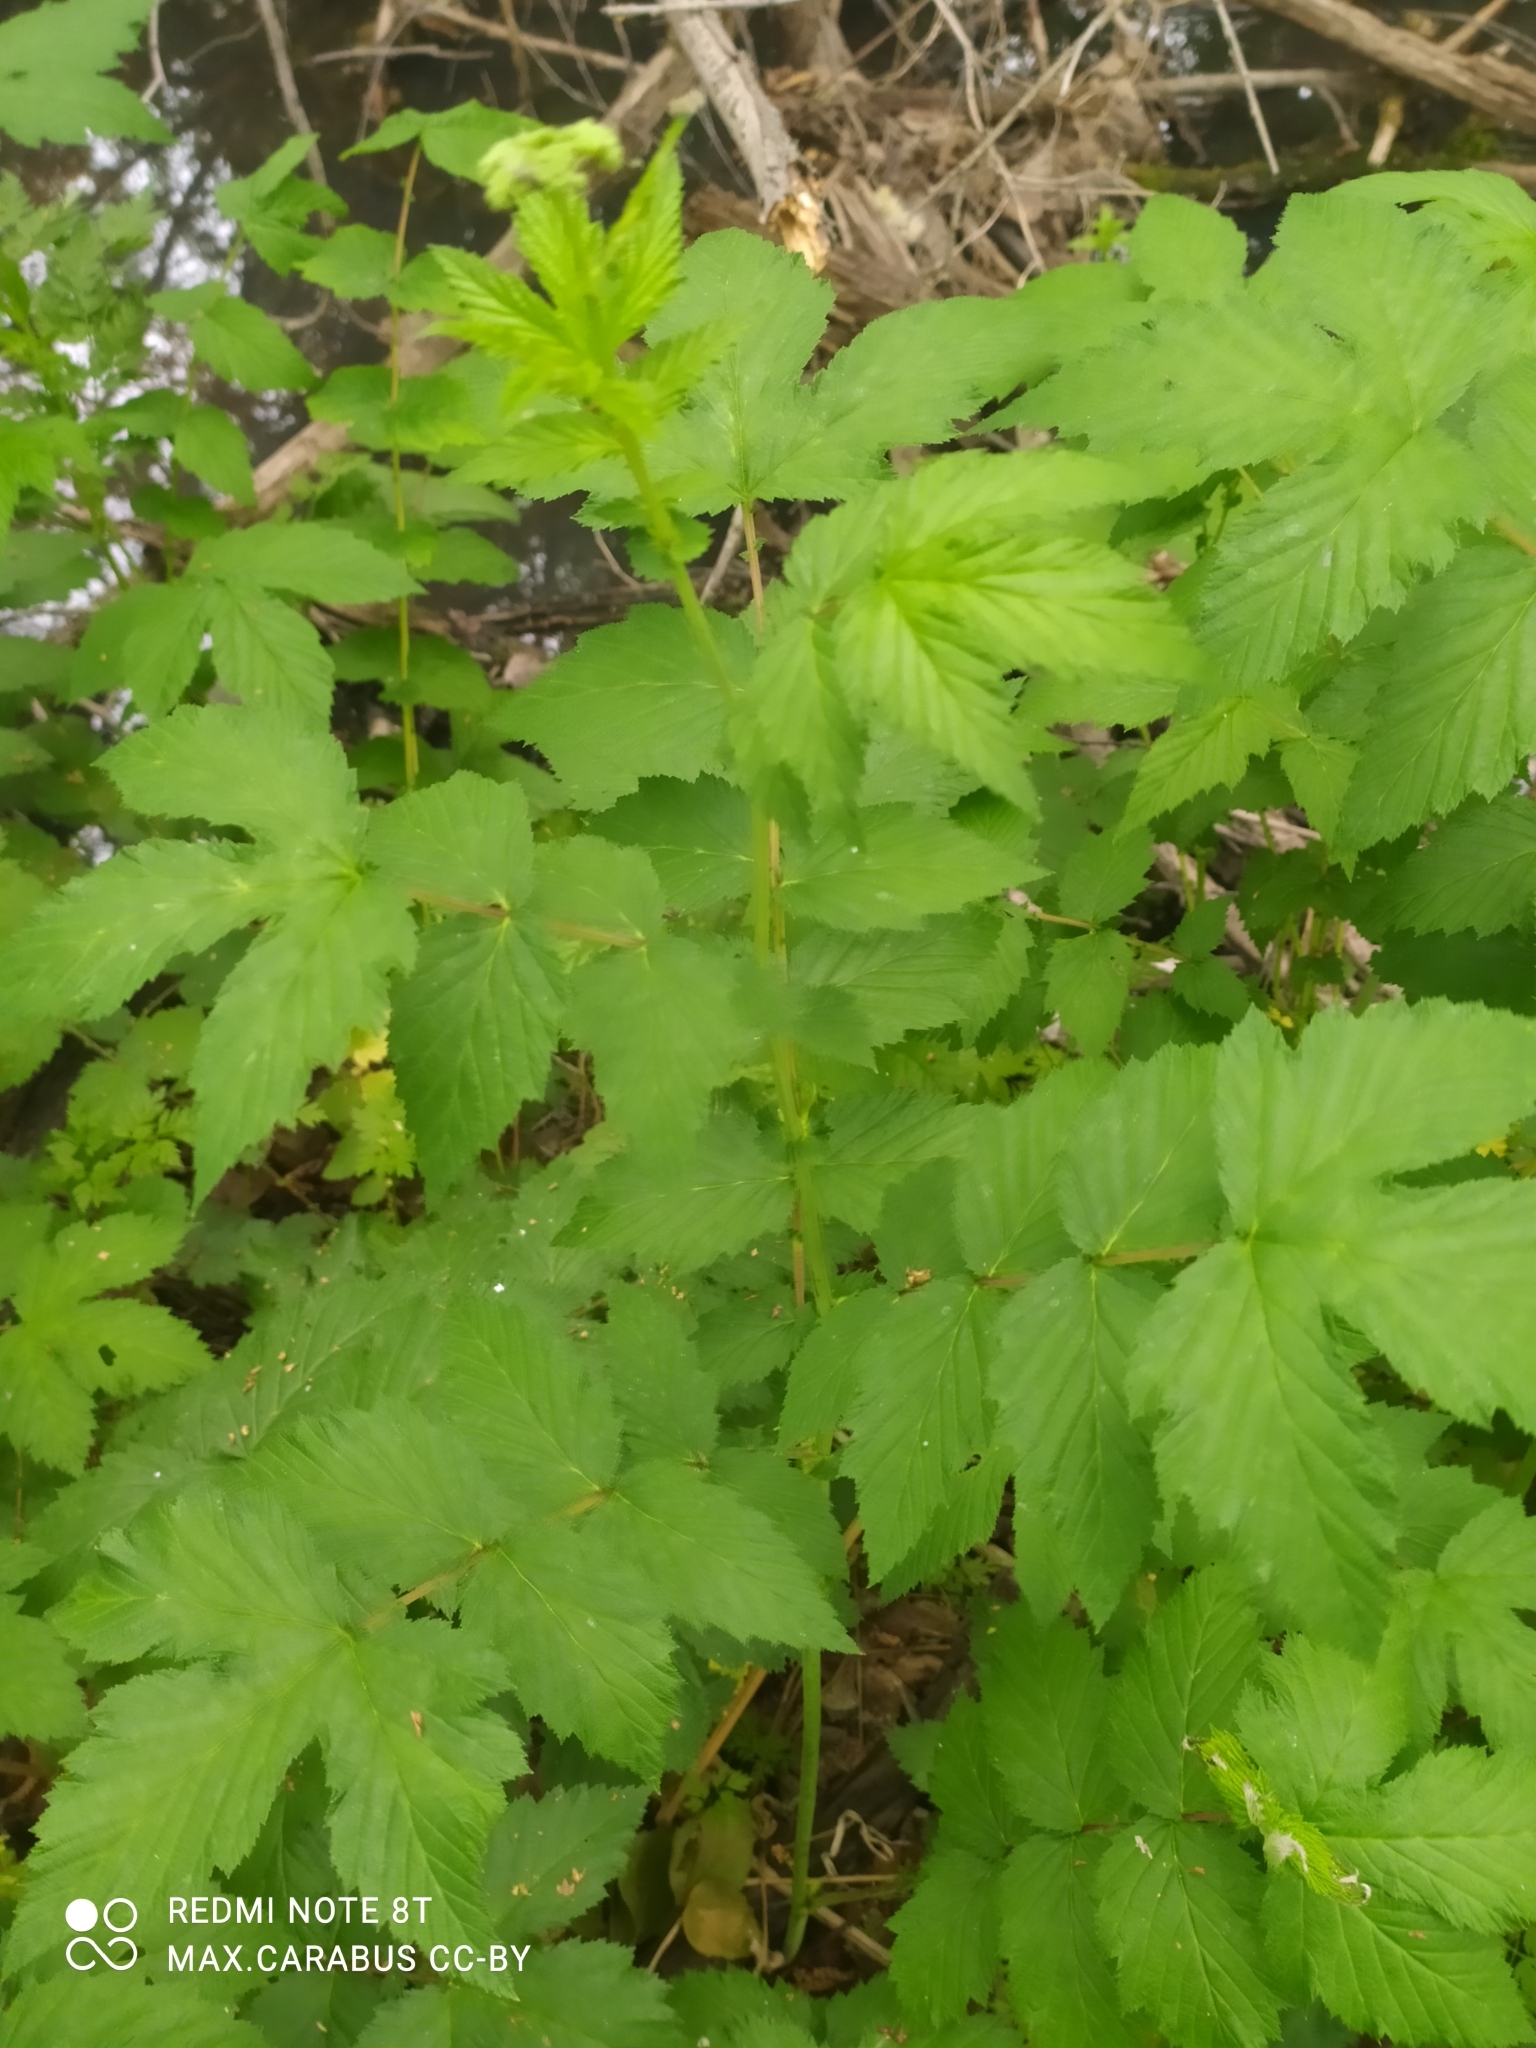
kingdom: Plantae
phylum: Tracheophyta
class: Magnoliopsida
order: Rosales
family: Rosaceae
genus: Filipendula
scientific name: Filipendula ulmaria
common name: Meadowsweet
